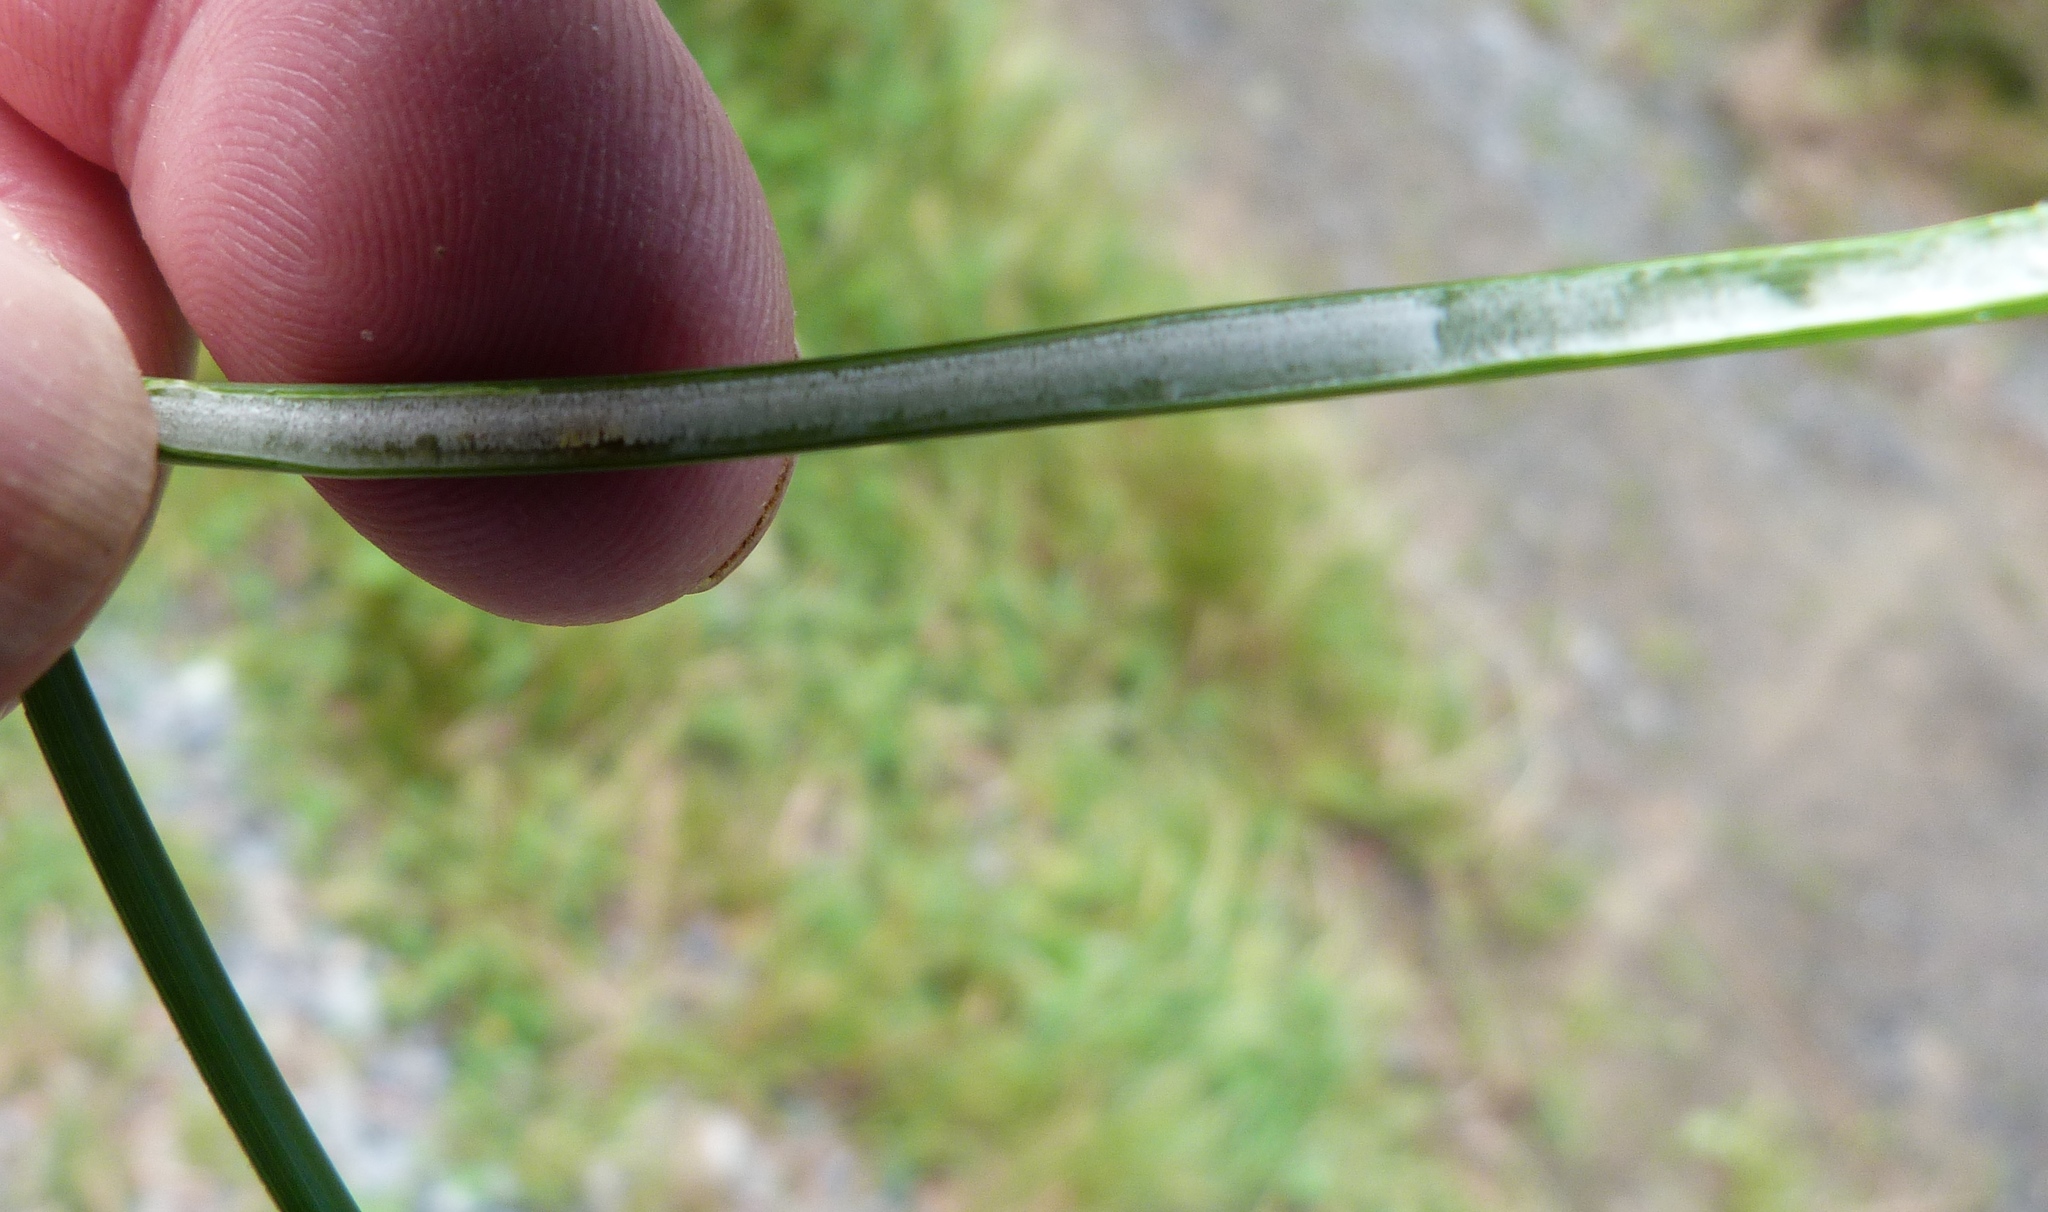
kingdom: Plantae
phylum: Tracheophyta
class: Liliopsida
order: Poales
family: Juncaceae
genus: Juncus
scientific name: Juncus effusus
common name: Soft rush
